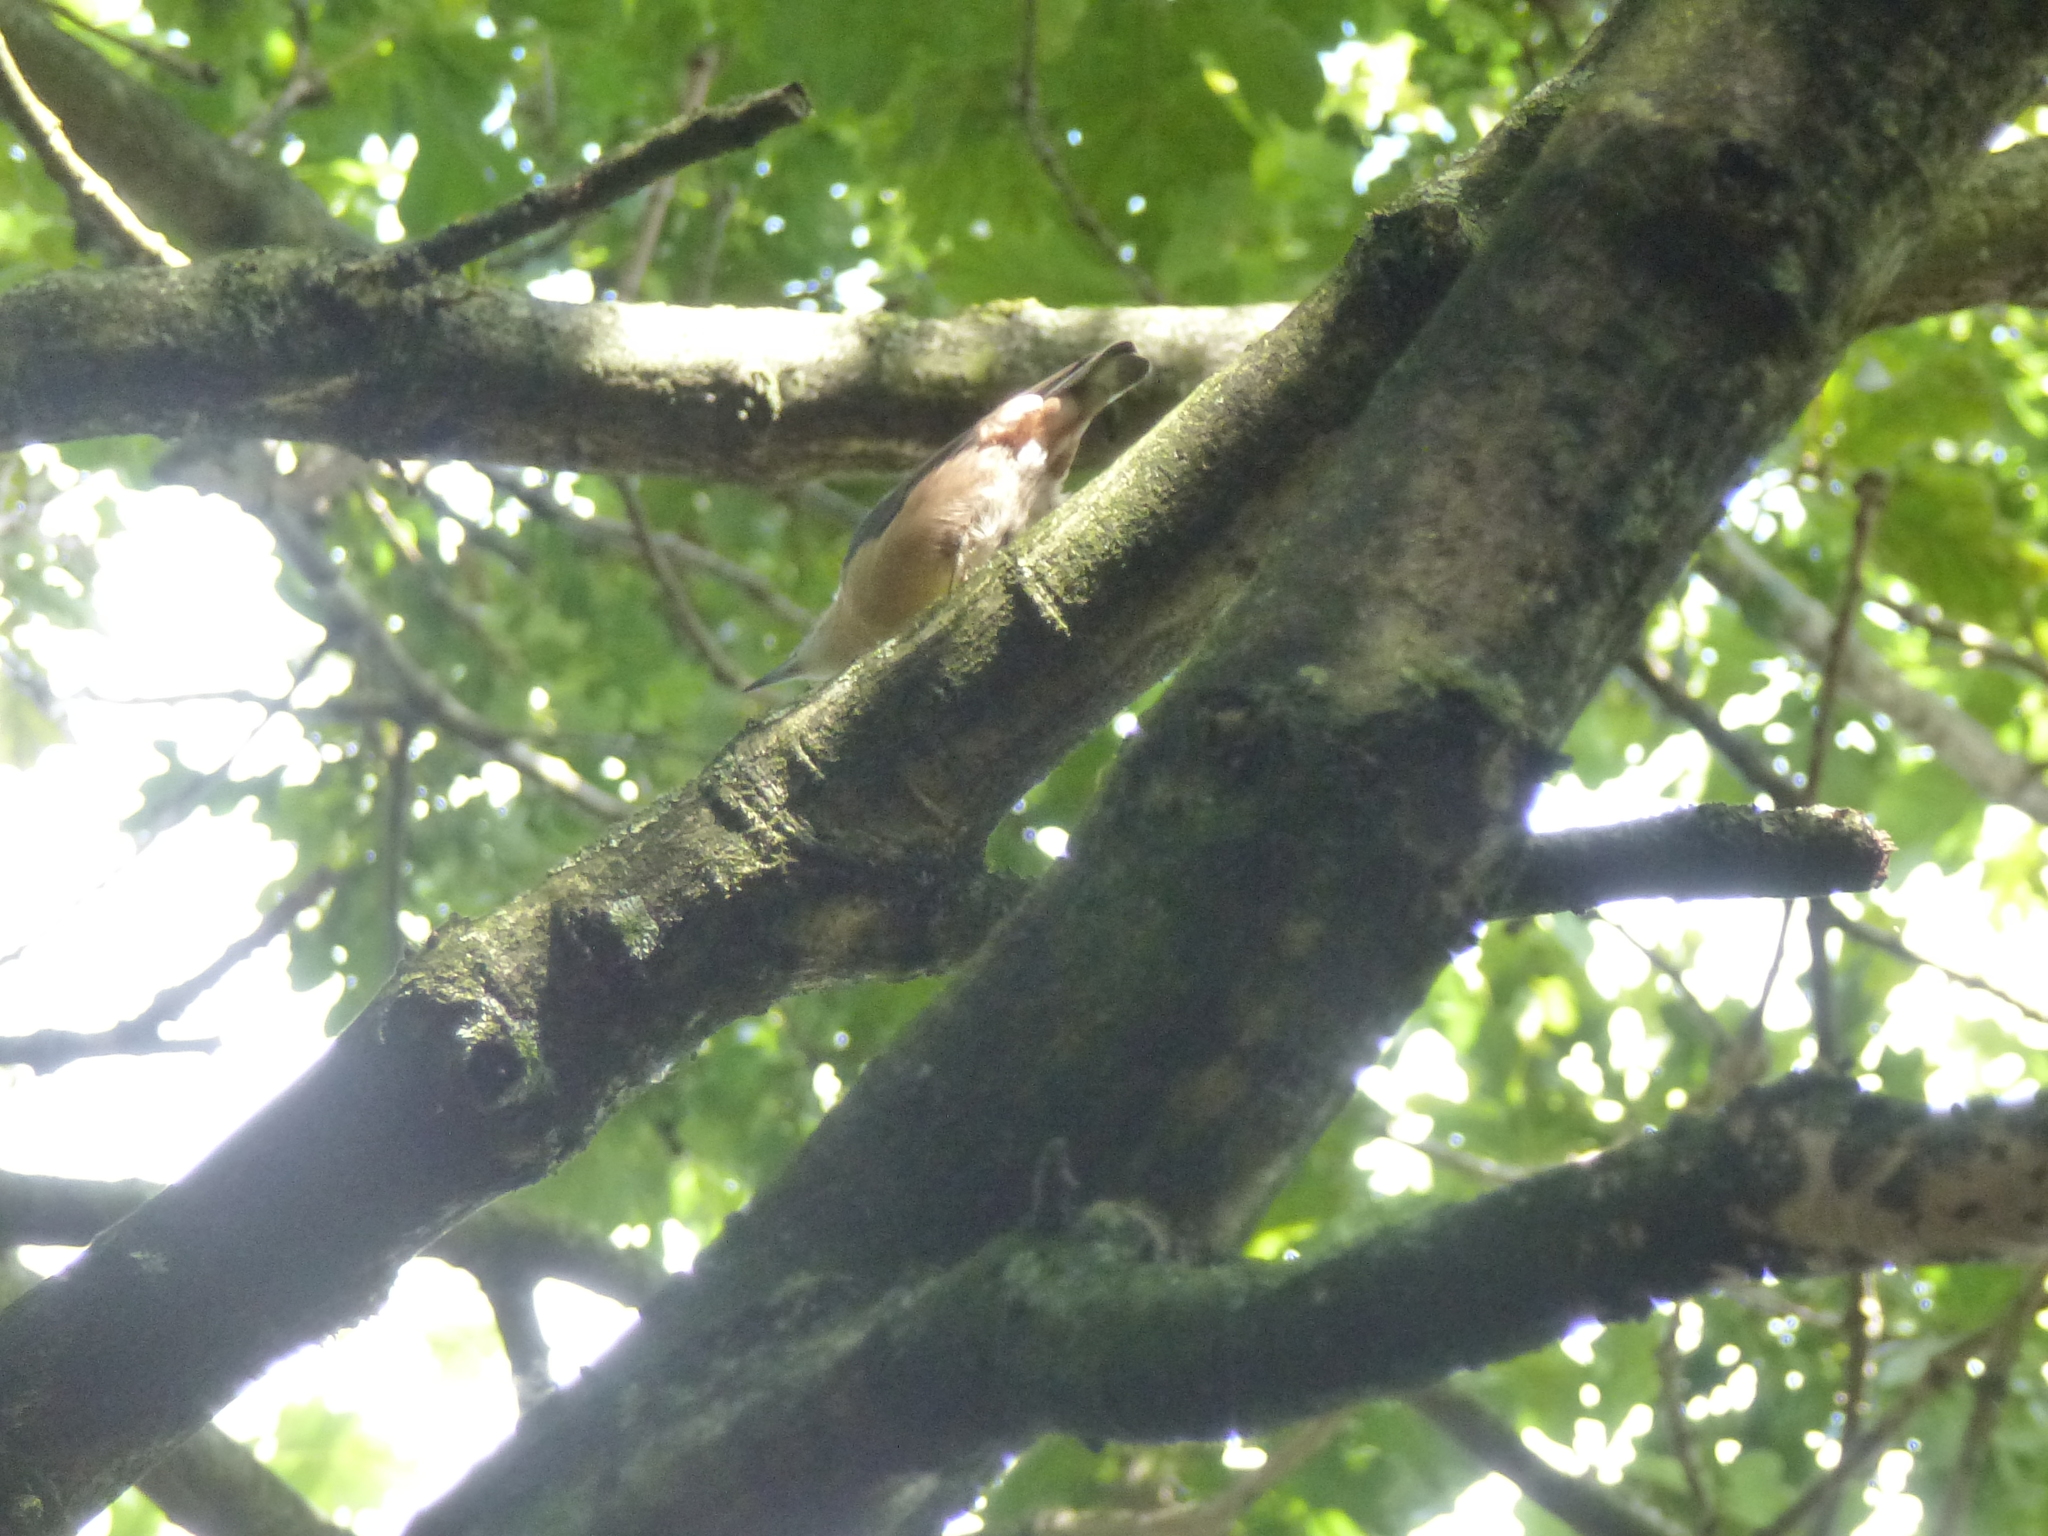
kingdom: Animalia
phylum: Chordata
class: Aves
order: Passeriformes
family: Sittidae
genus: Sitta
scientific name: Sitta europaea
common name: Eurasian nuthatch
